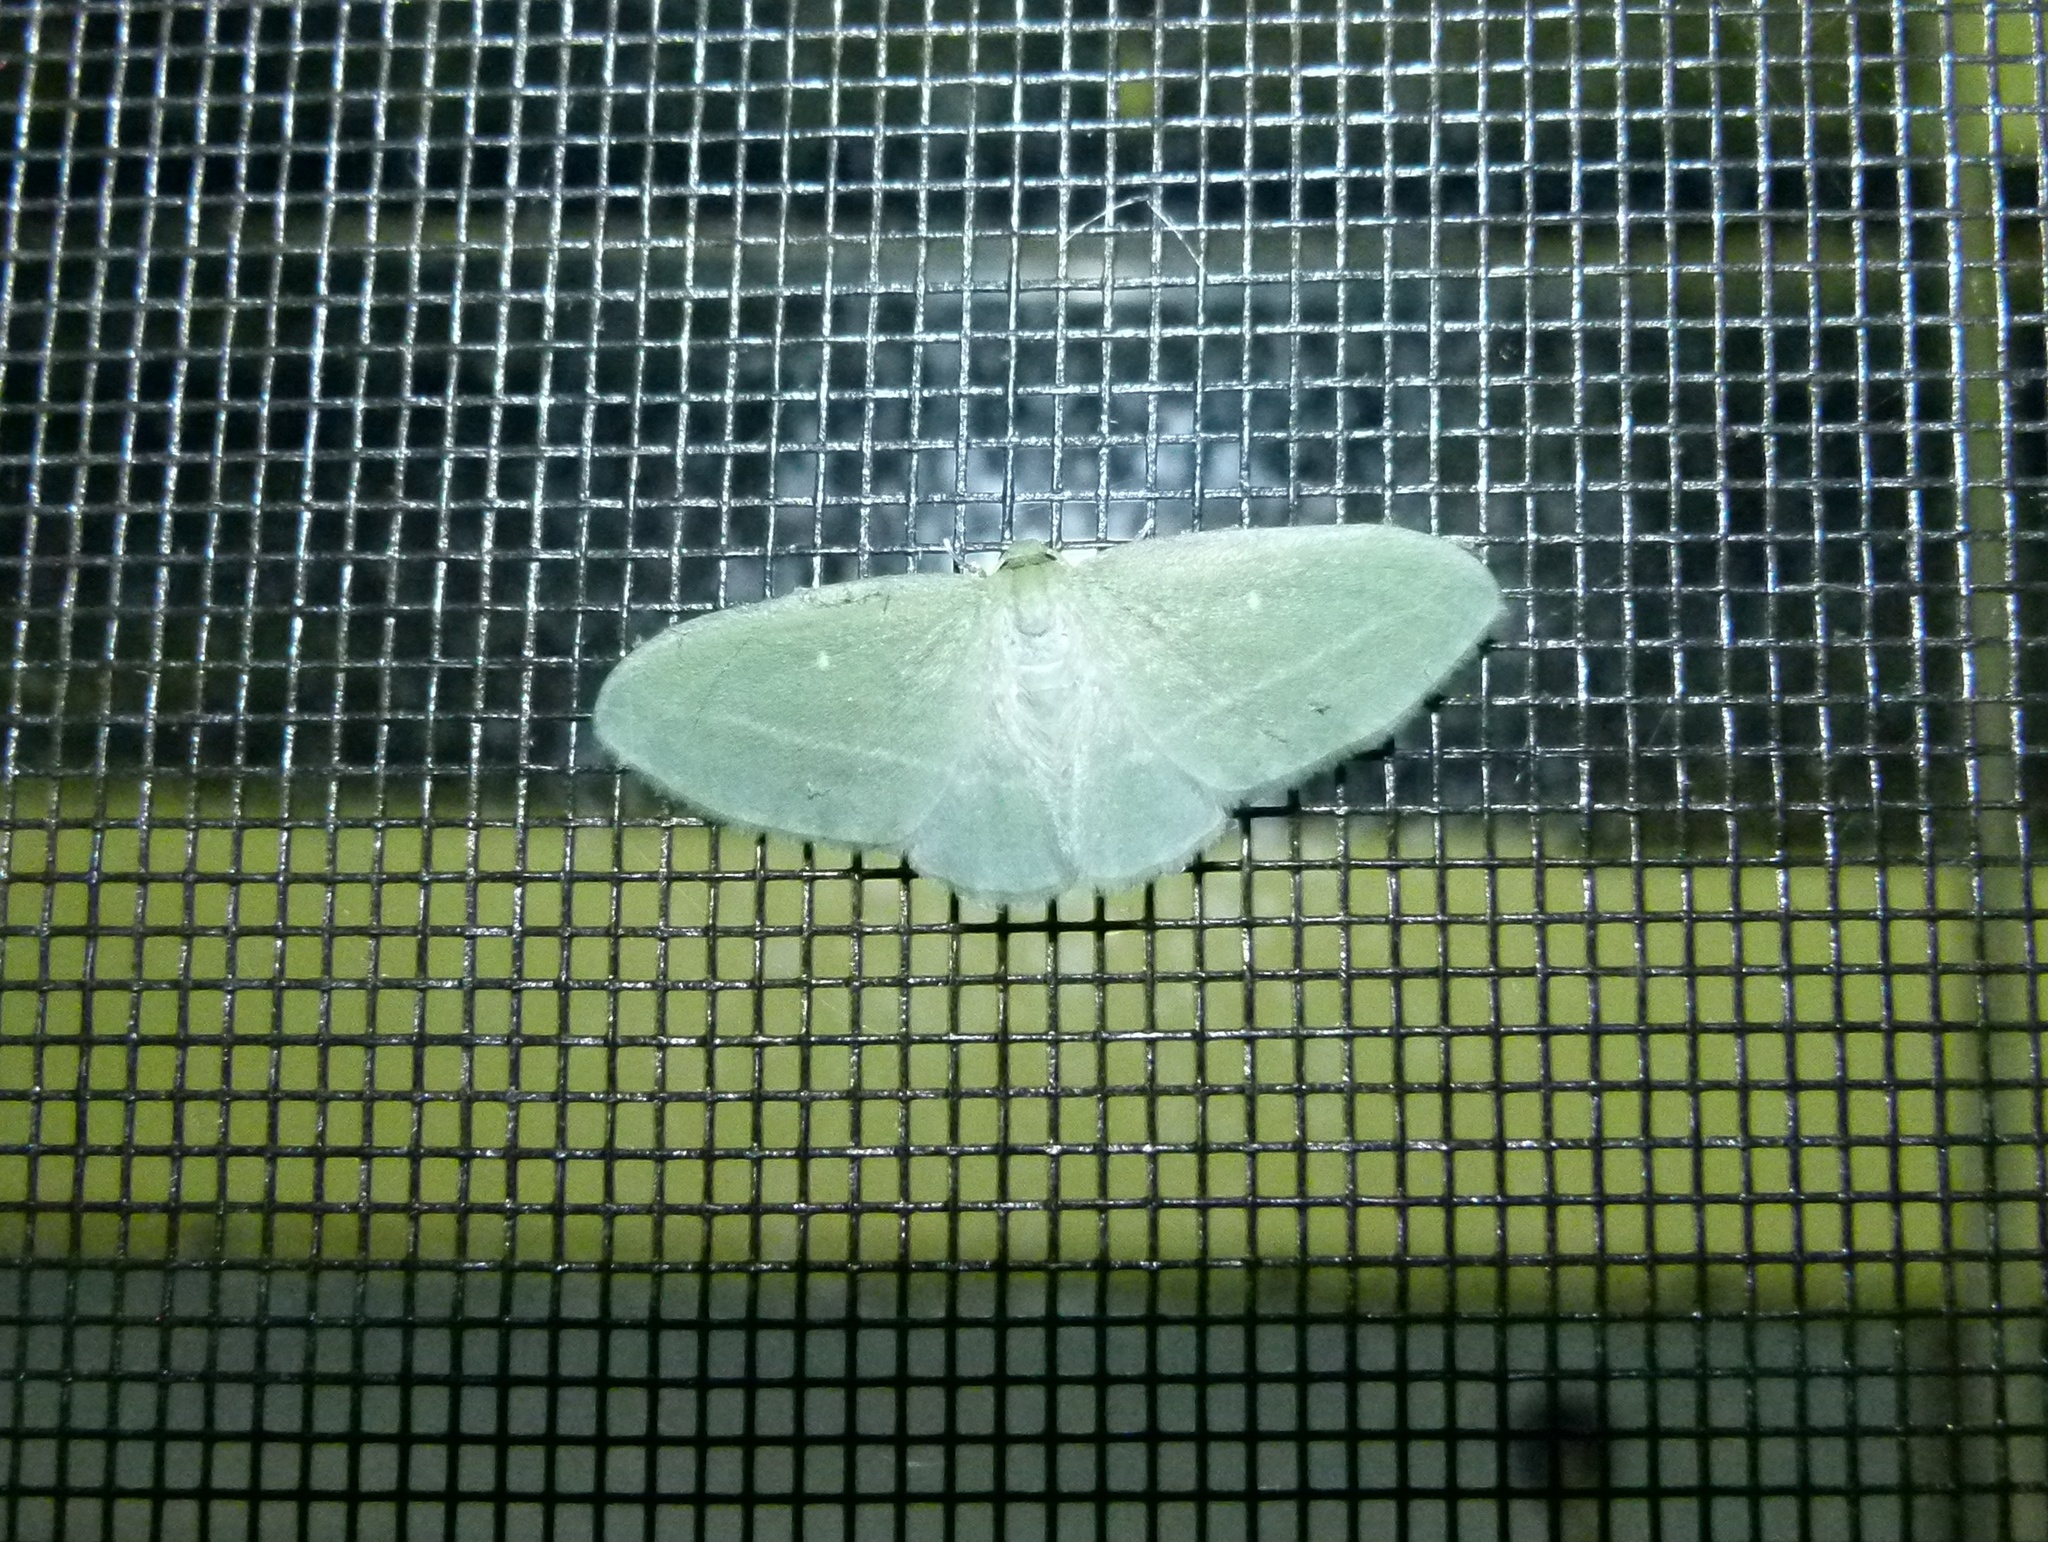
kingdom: Animalia
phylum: Arthropoda
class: Insecta
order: Lepidoptera
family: Geometridae
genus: Dyspteris
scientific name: Dyspteris abortivaria
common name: Bad-wing
